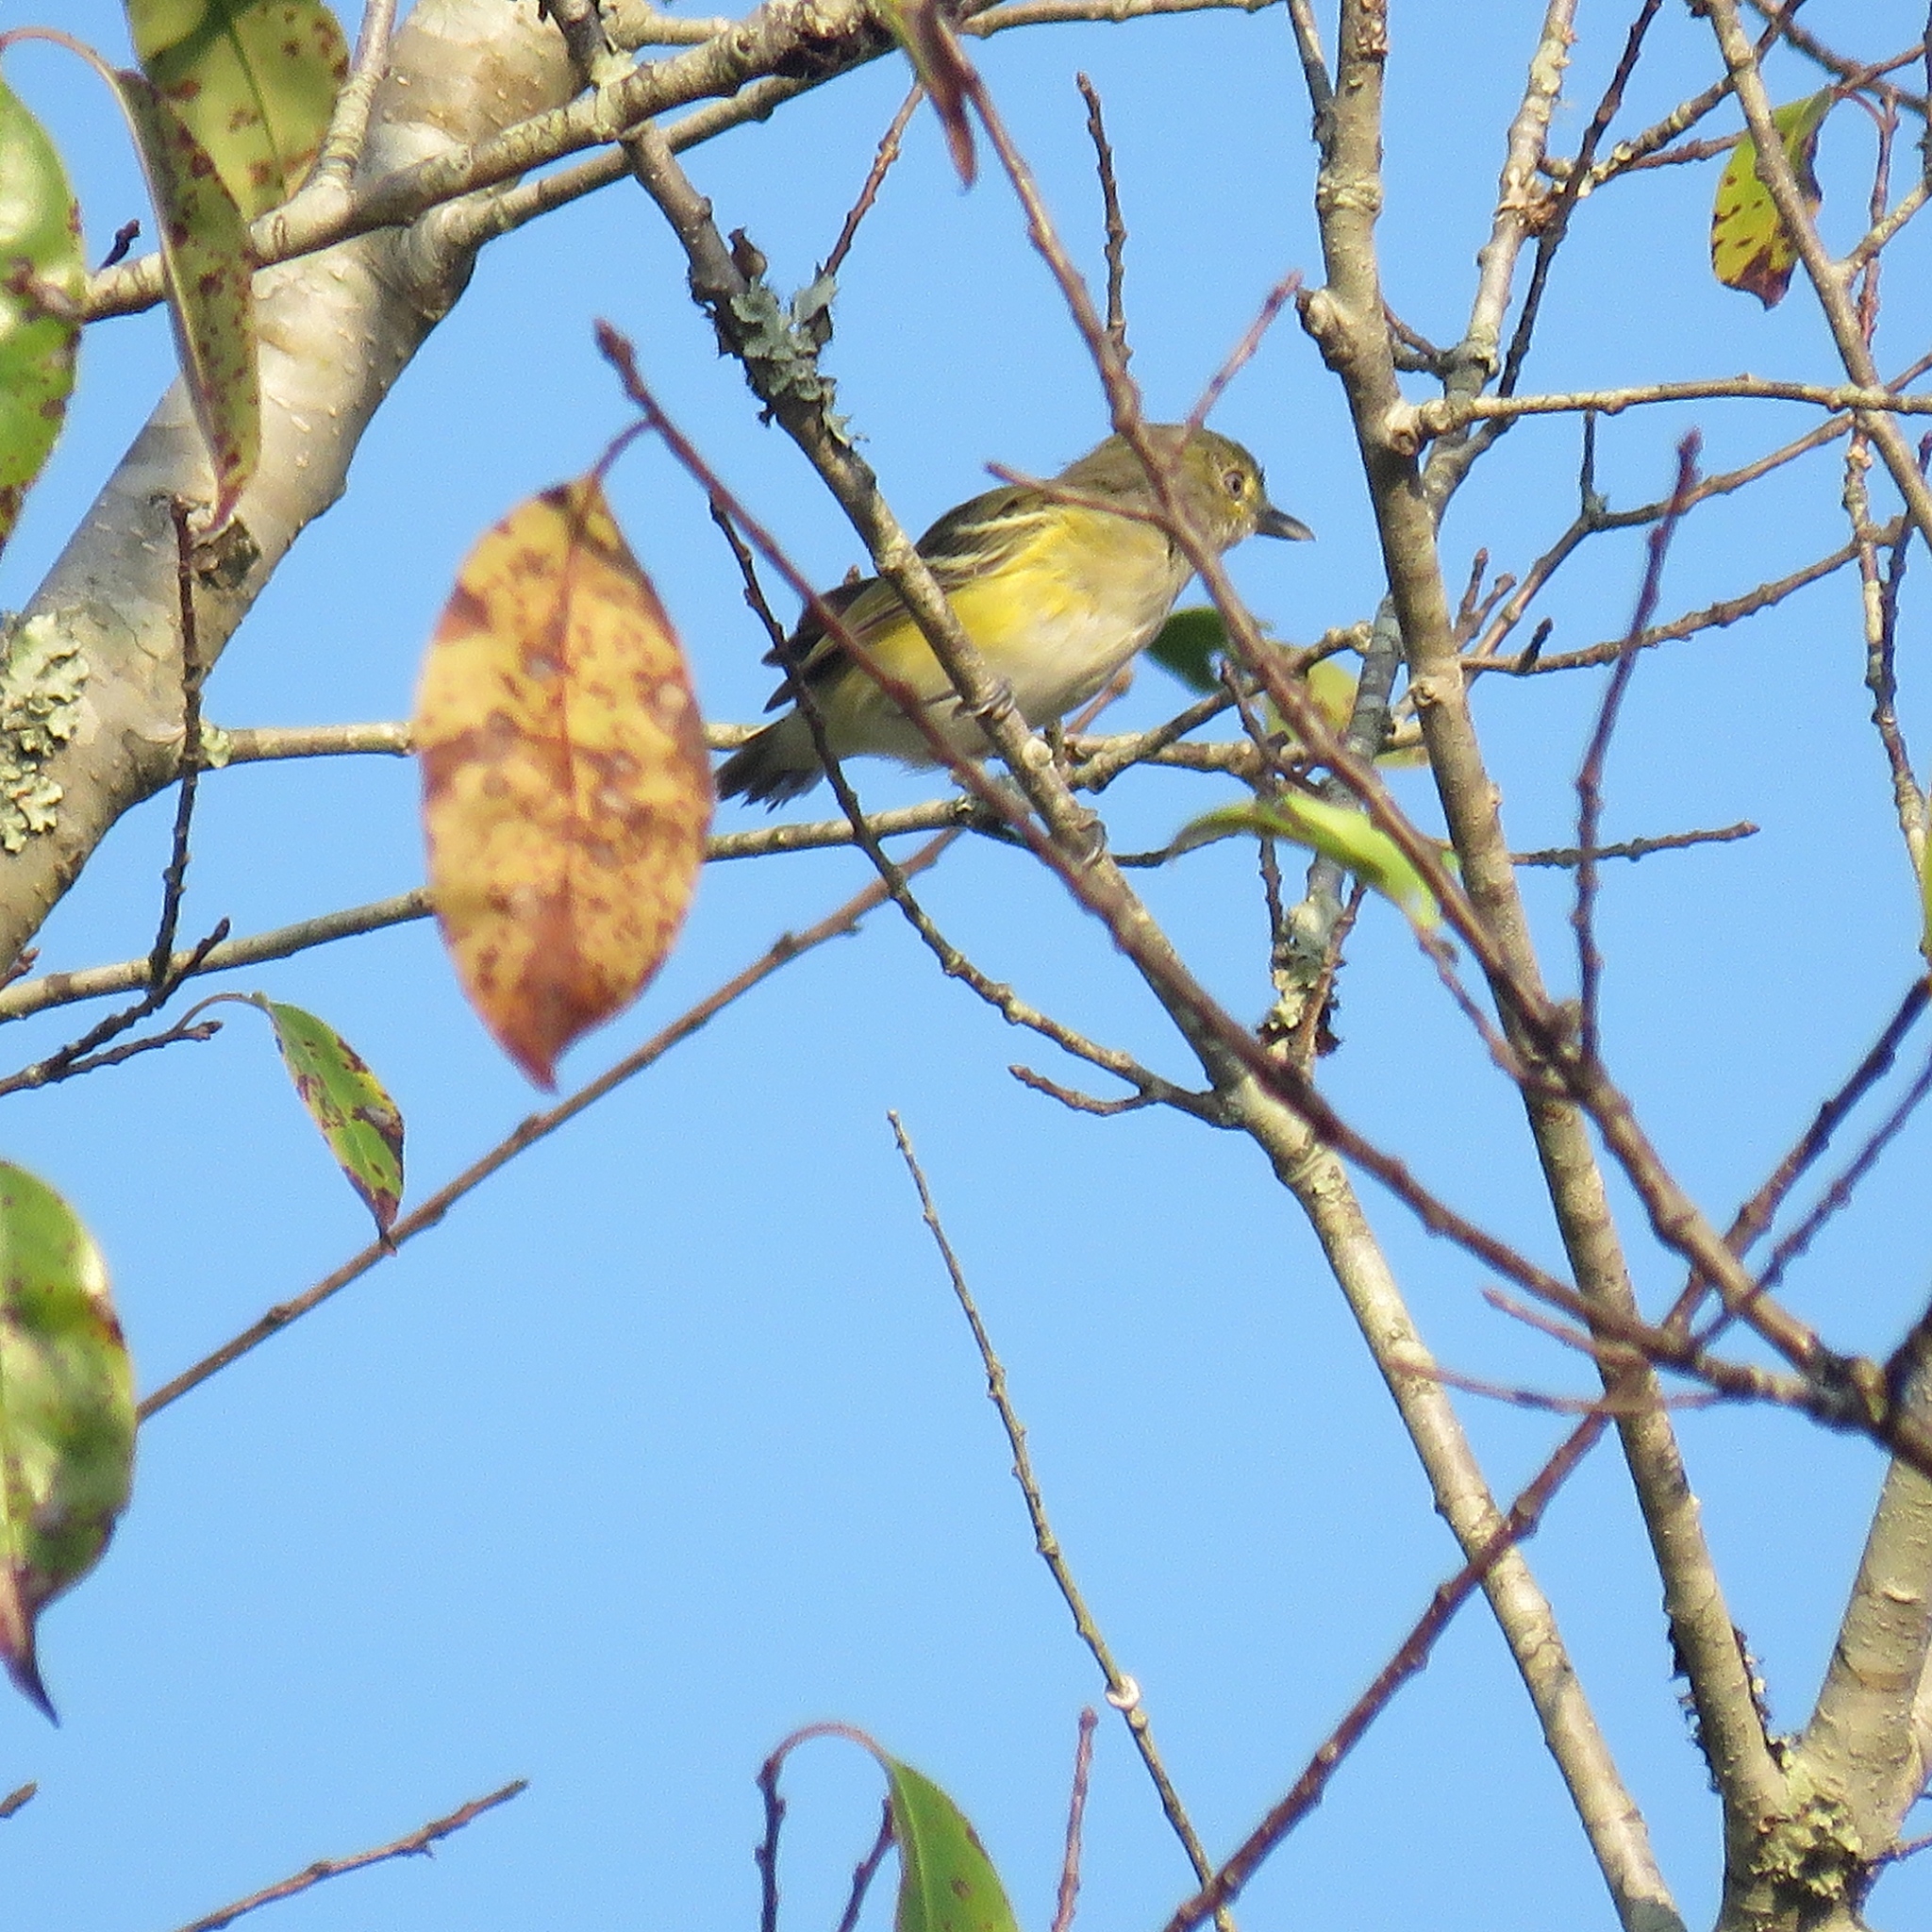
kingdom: Animalia
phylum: Chordata
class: Aves
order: Passeriformes
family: Vireonidae
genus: Vireo
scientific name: Vireo griseus
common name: White-eyed vireo
